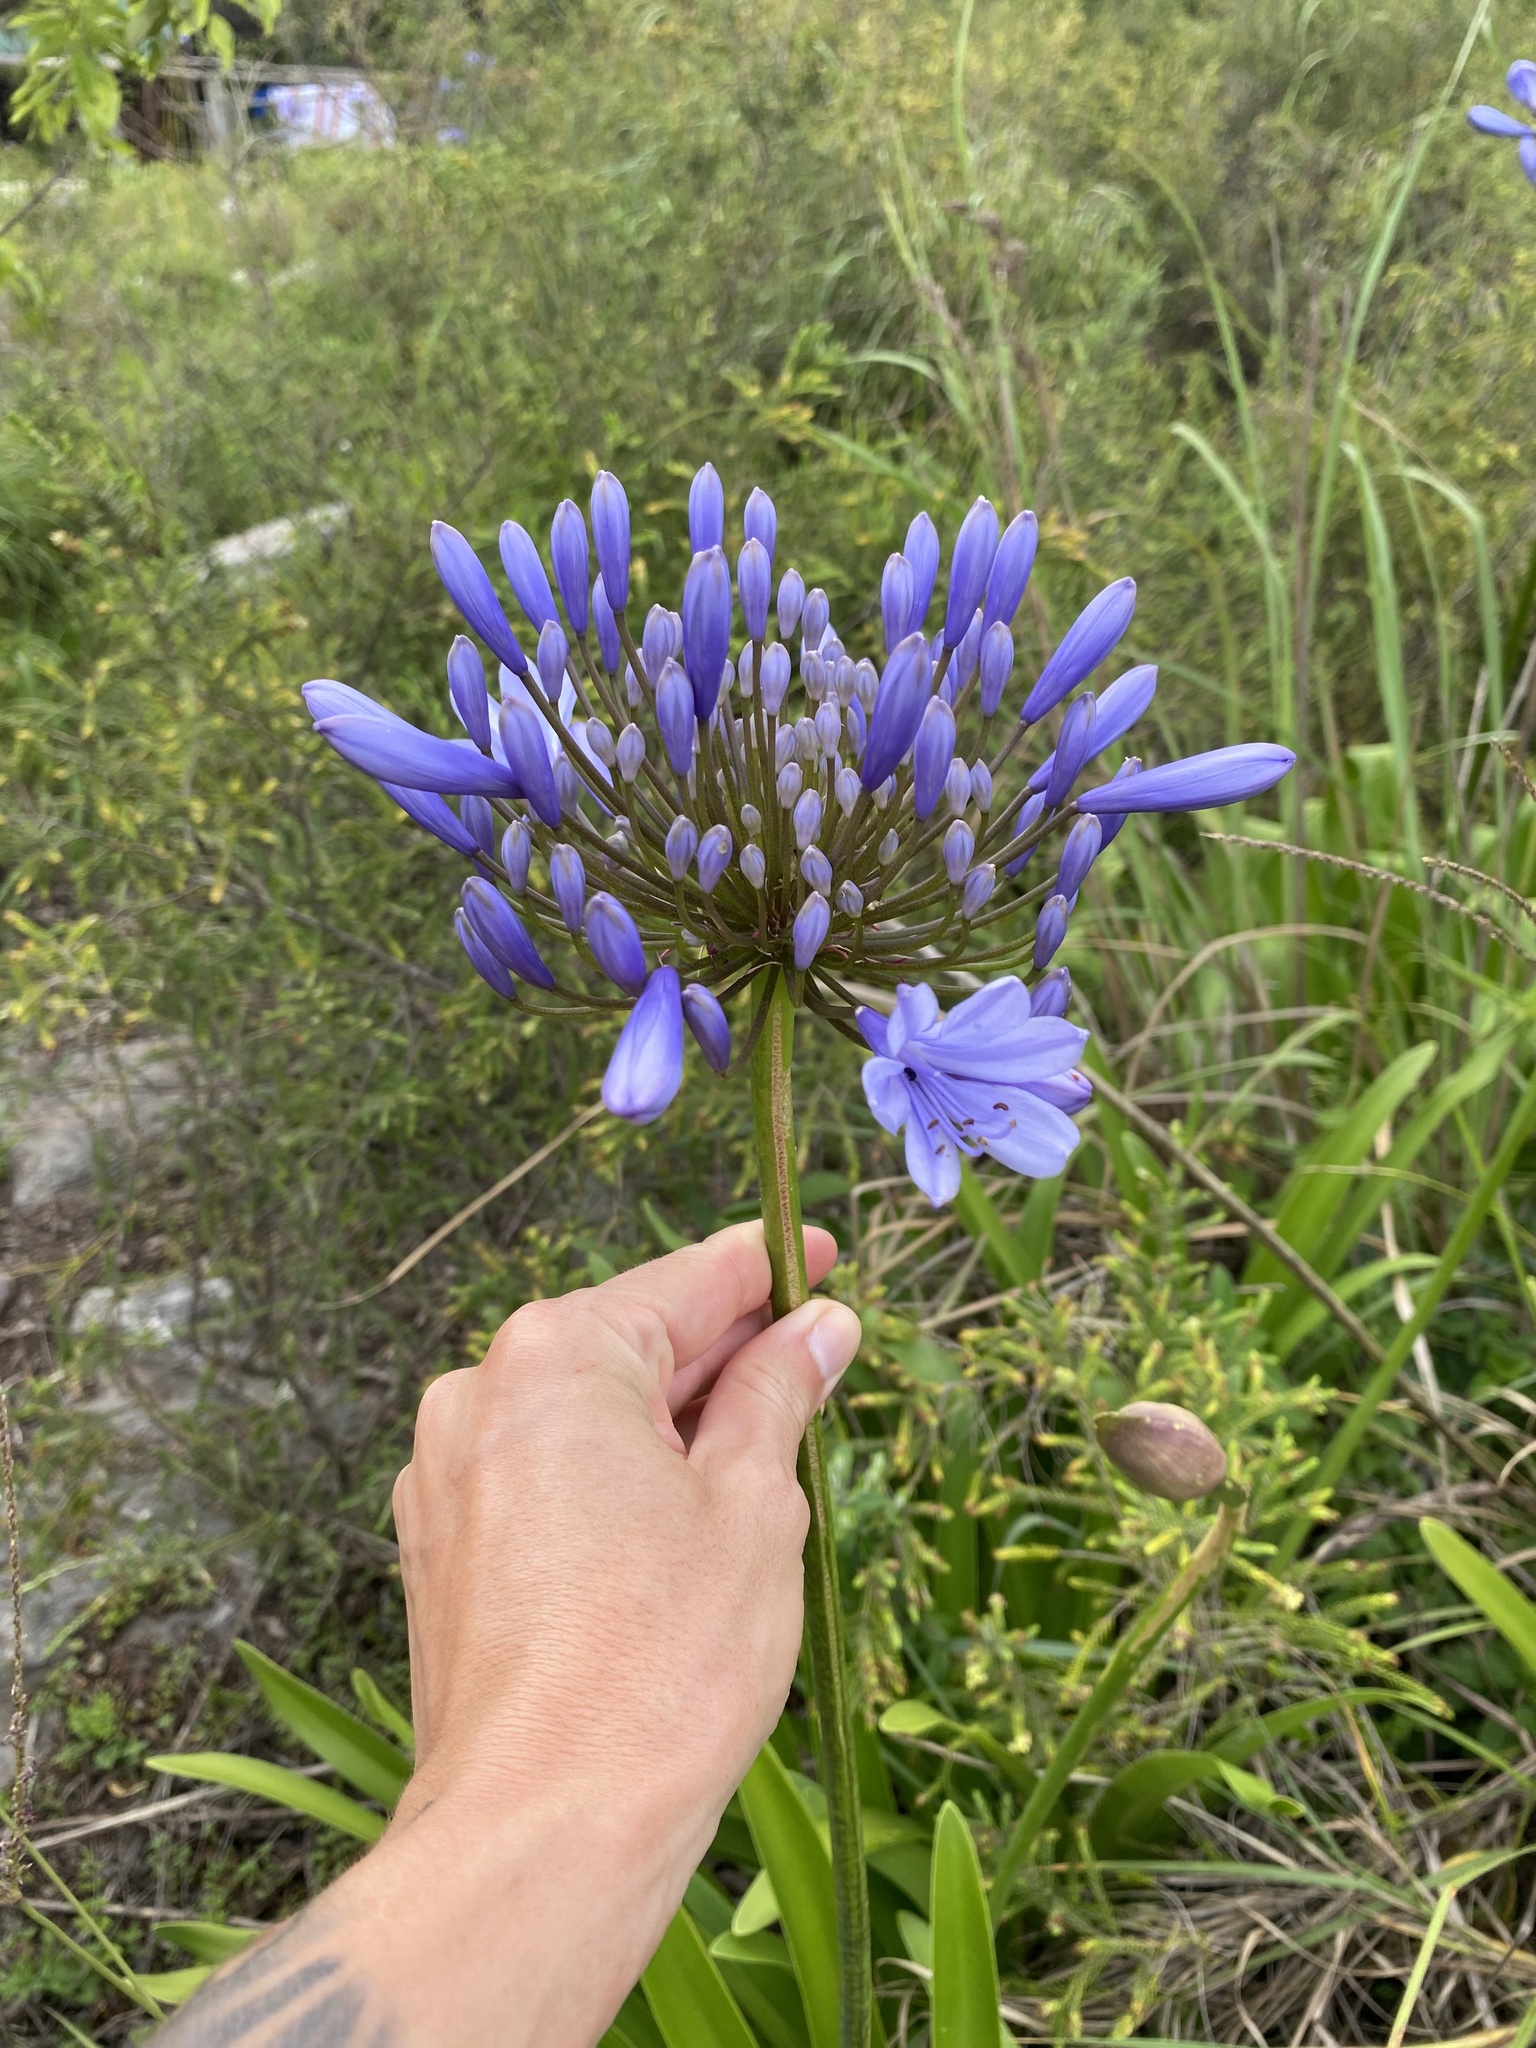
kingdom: Plantae
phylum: Tracheophyta
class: Liliopsida
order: Asparagales
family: Amaryllidaceae
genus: Agapanthus
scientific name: Agapanthus pondoensis
